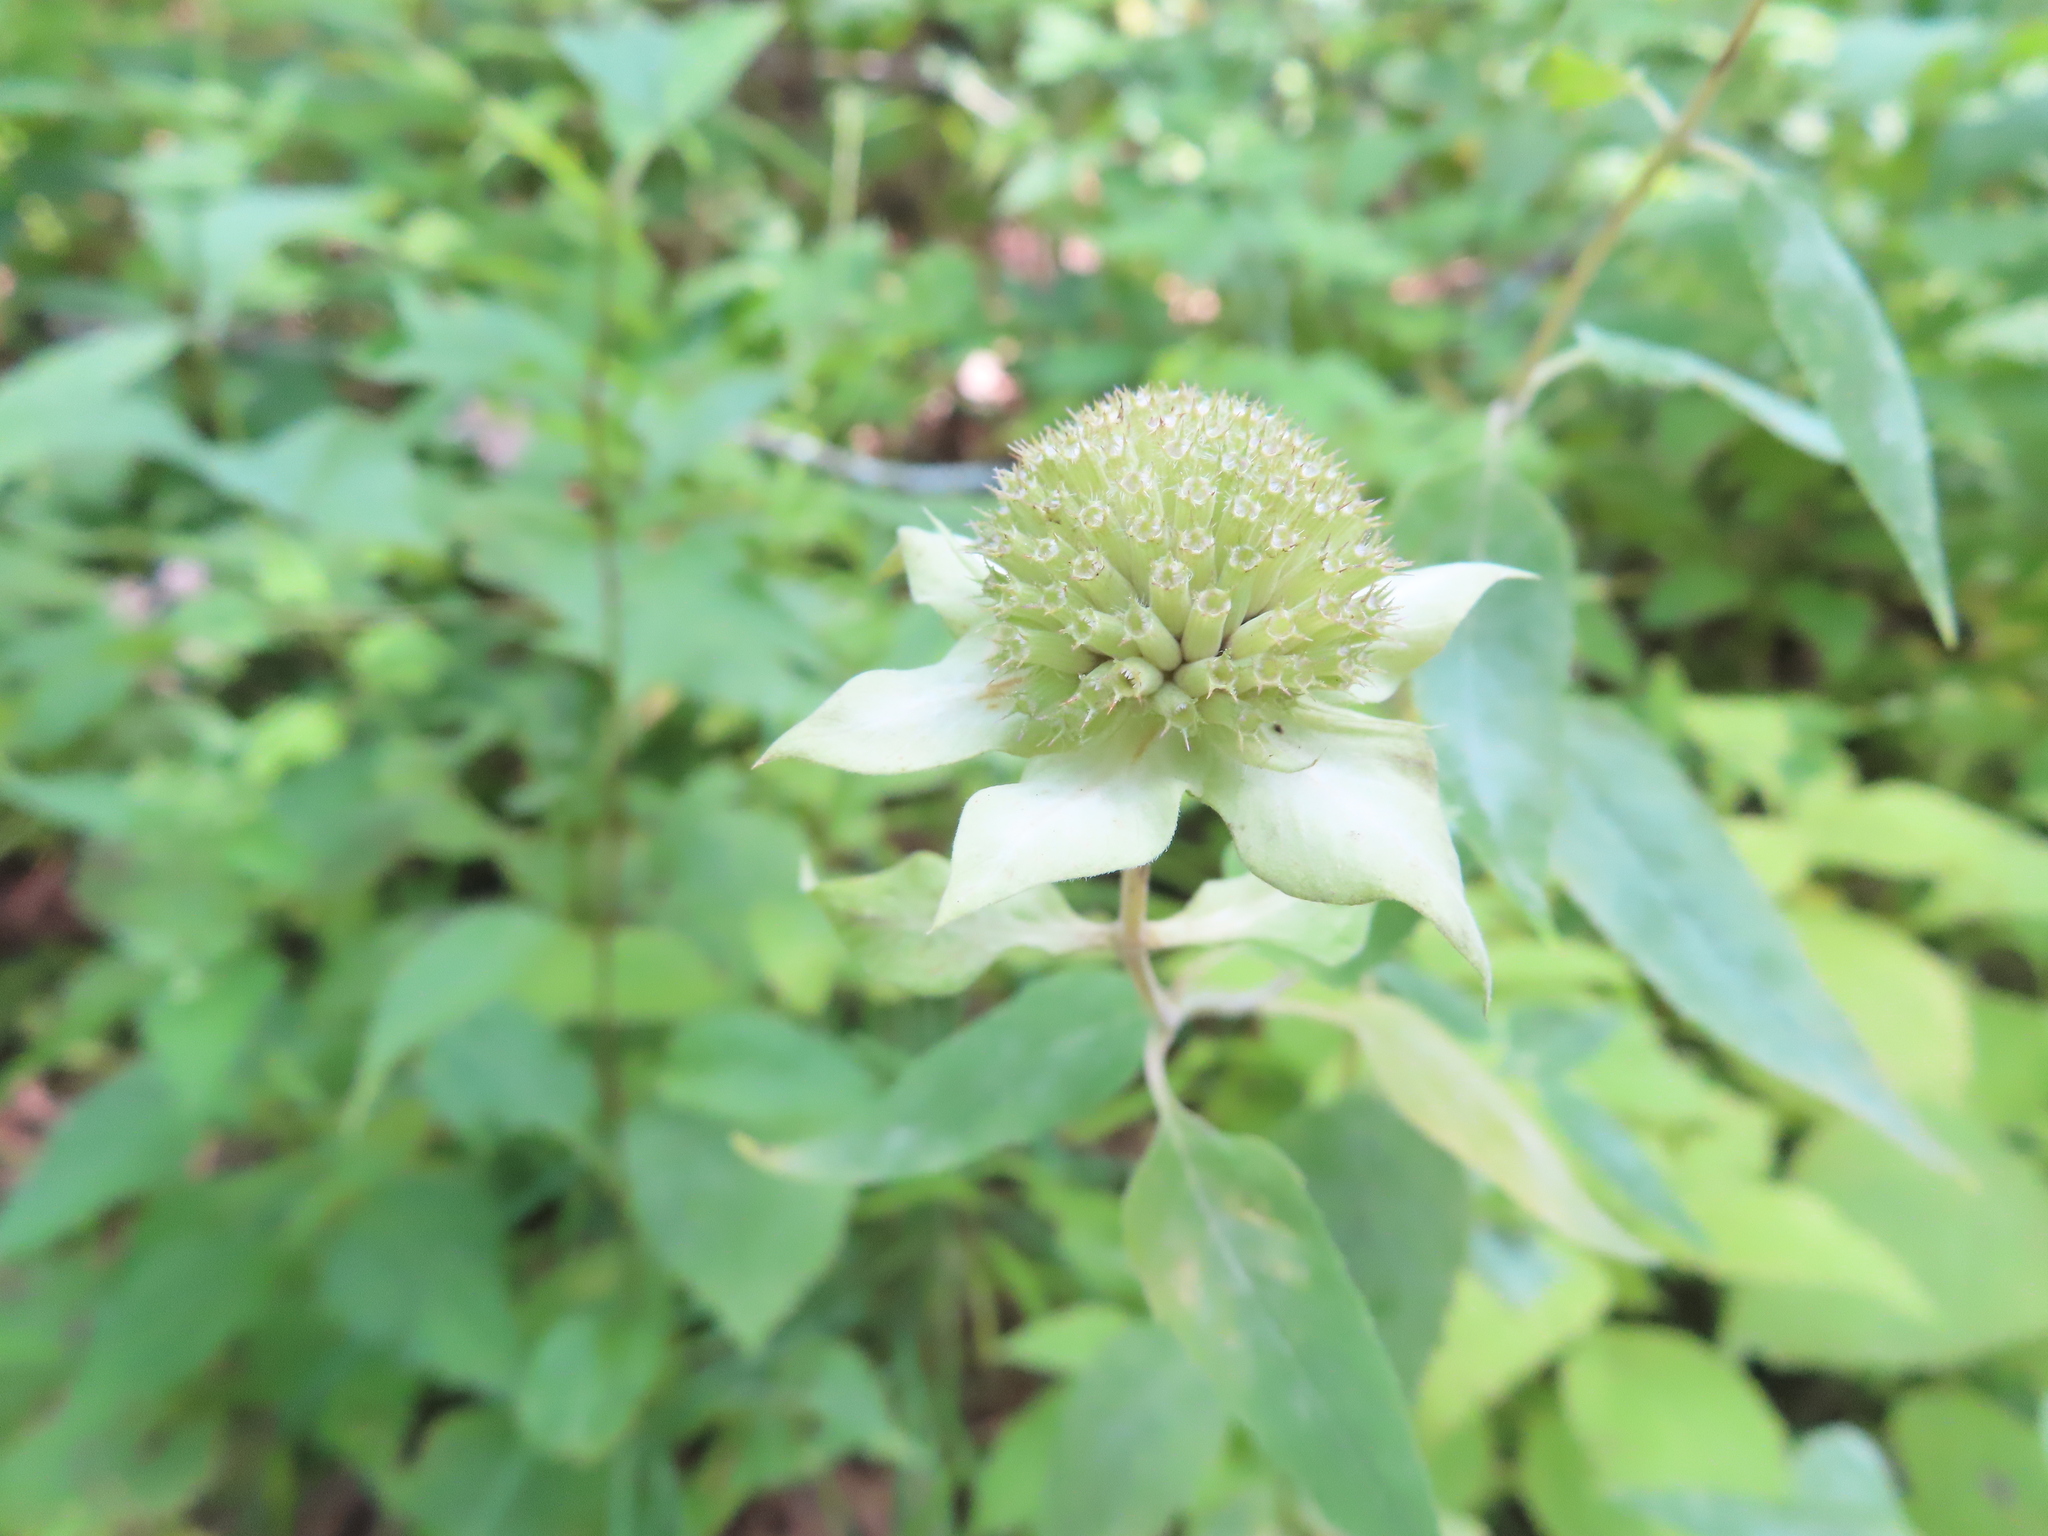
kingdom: Plantae
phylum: Tracheophyta
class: Magnoliopsida
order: Lamiales
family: Lamiaceae
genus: Monarda
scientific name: Monarda fistulosa
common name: Purple beebalm
